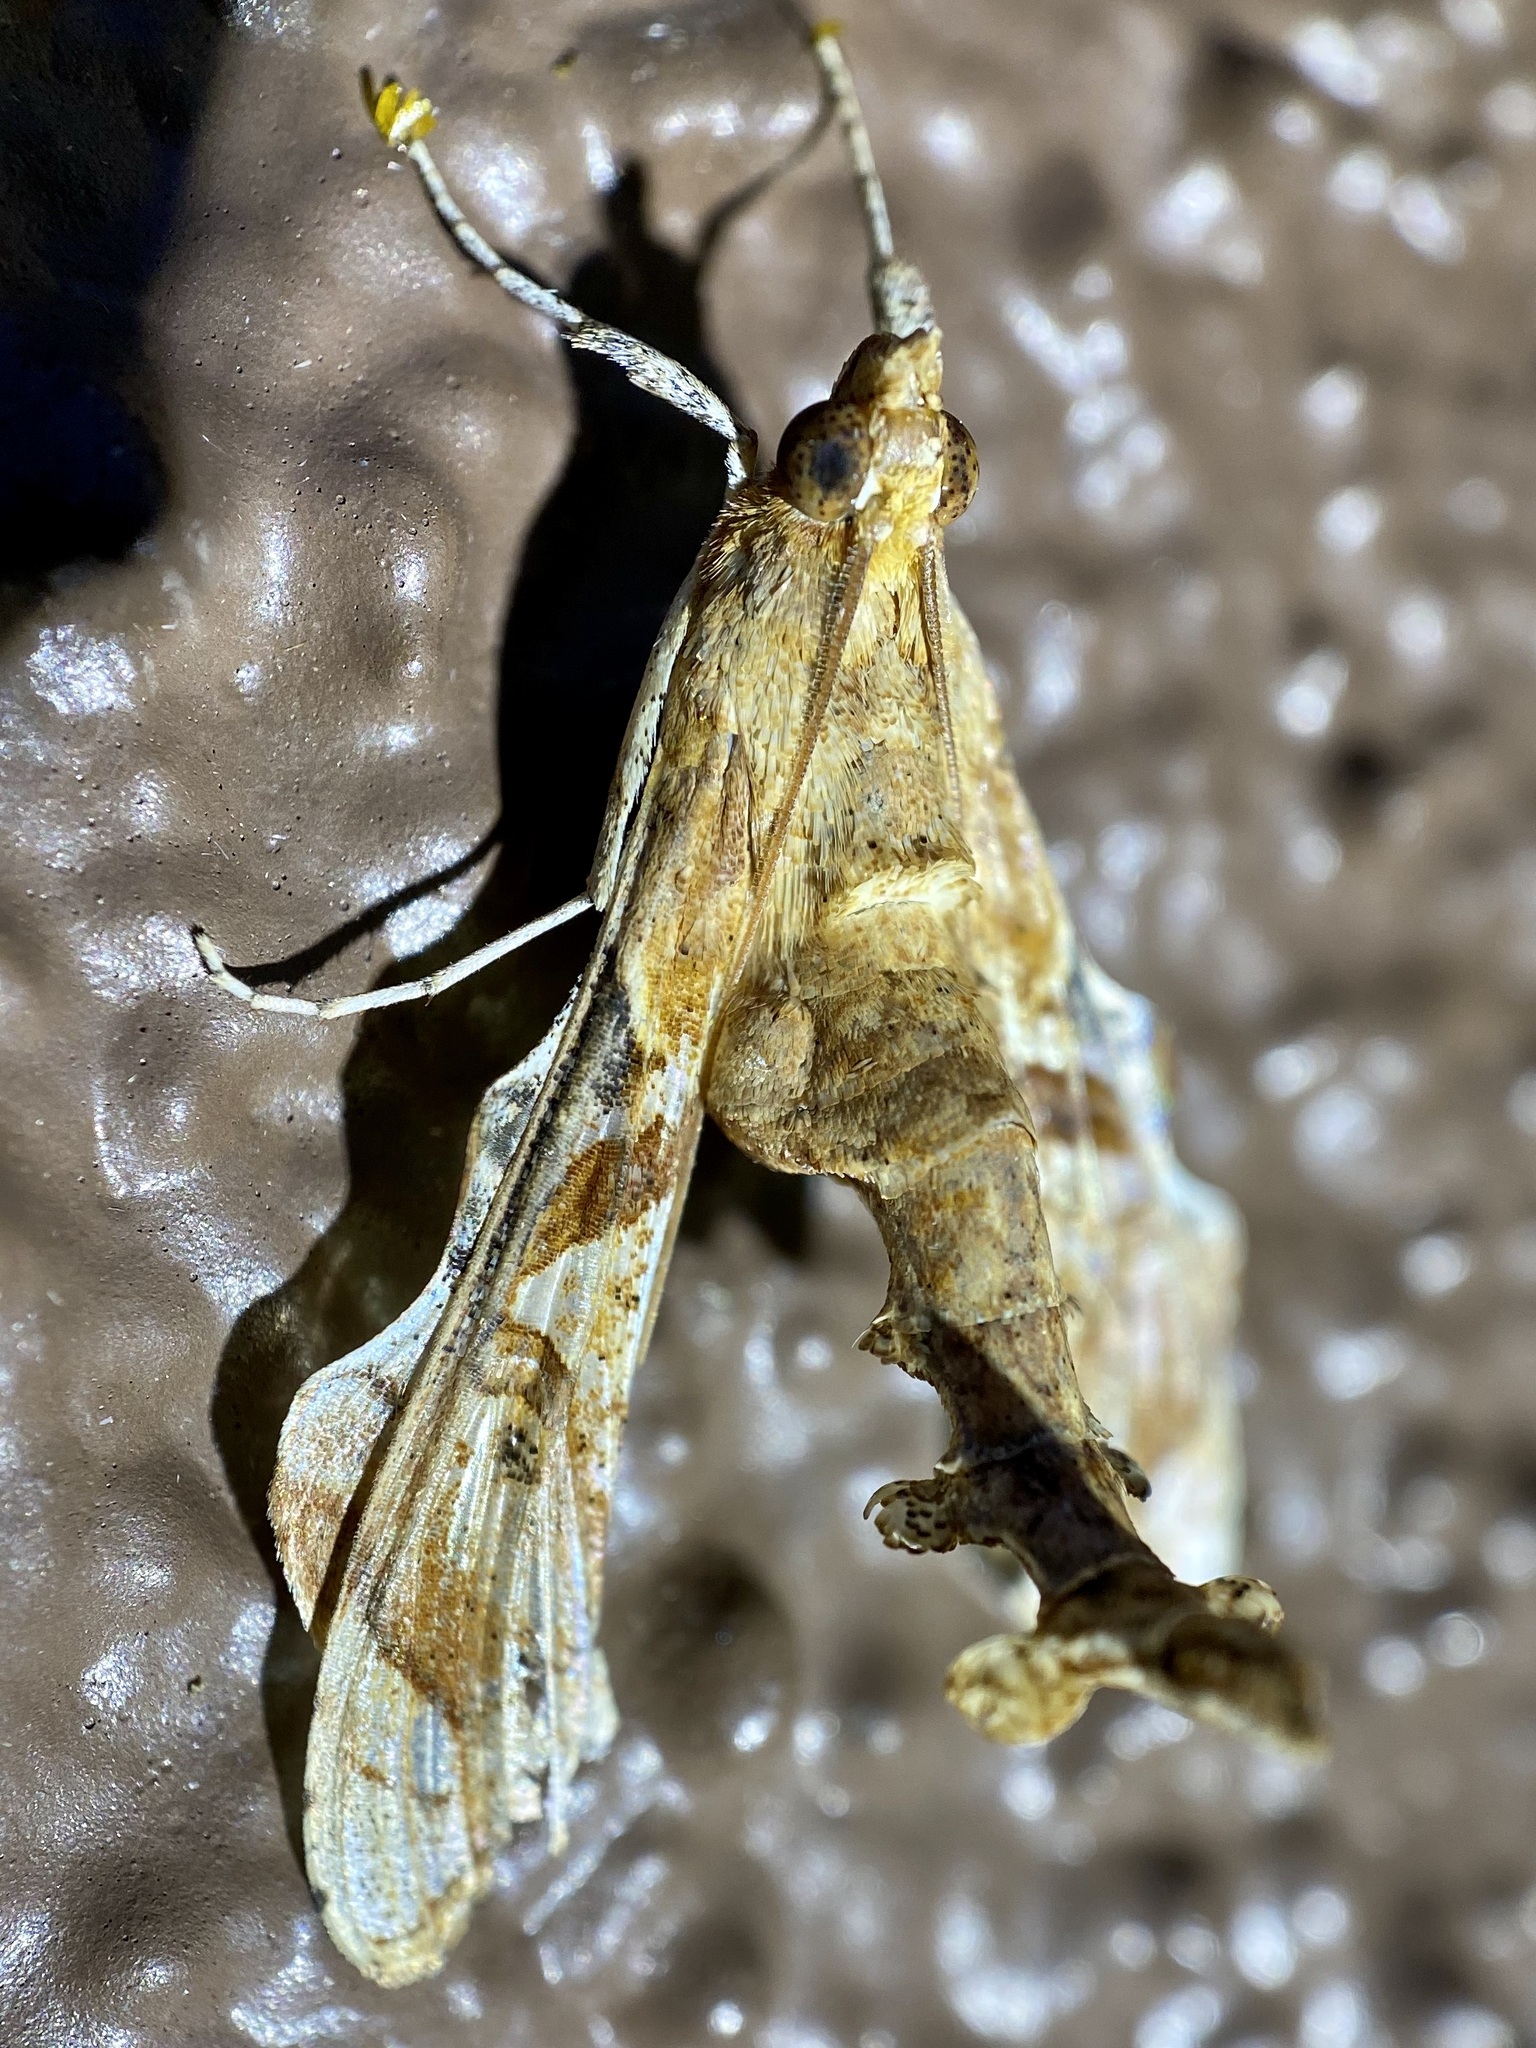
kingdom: Animalia
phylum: Arthropoda
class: Insecta
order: Lepidoptera
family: Crambidae
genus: Terastia
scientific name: Terastia meticulosalis
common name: Moth
